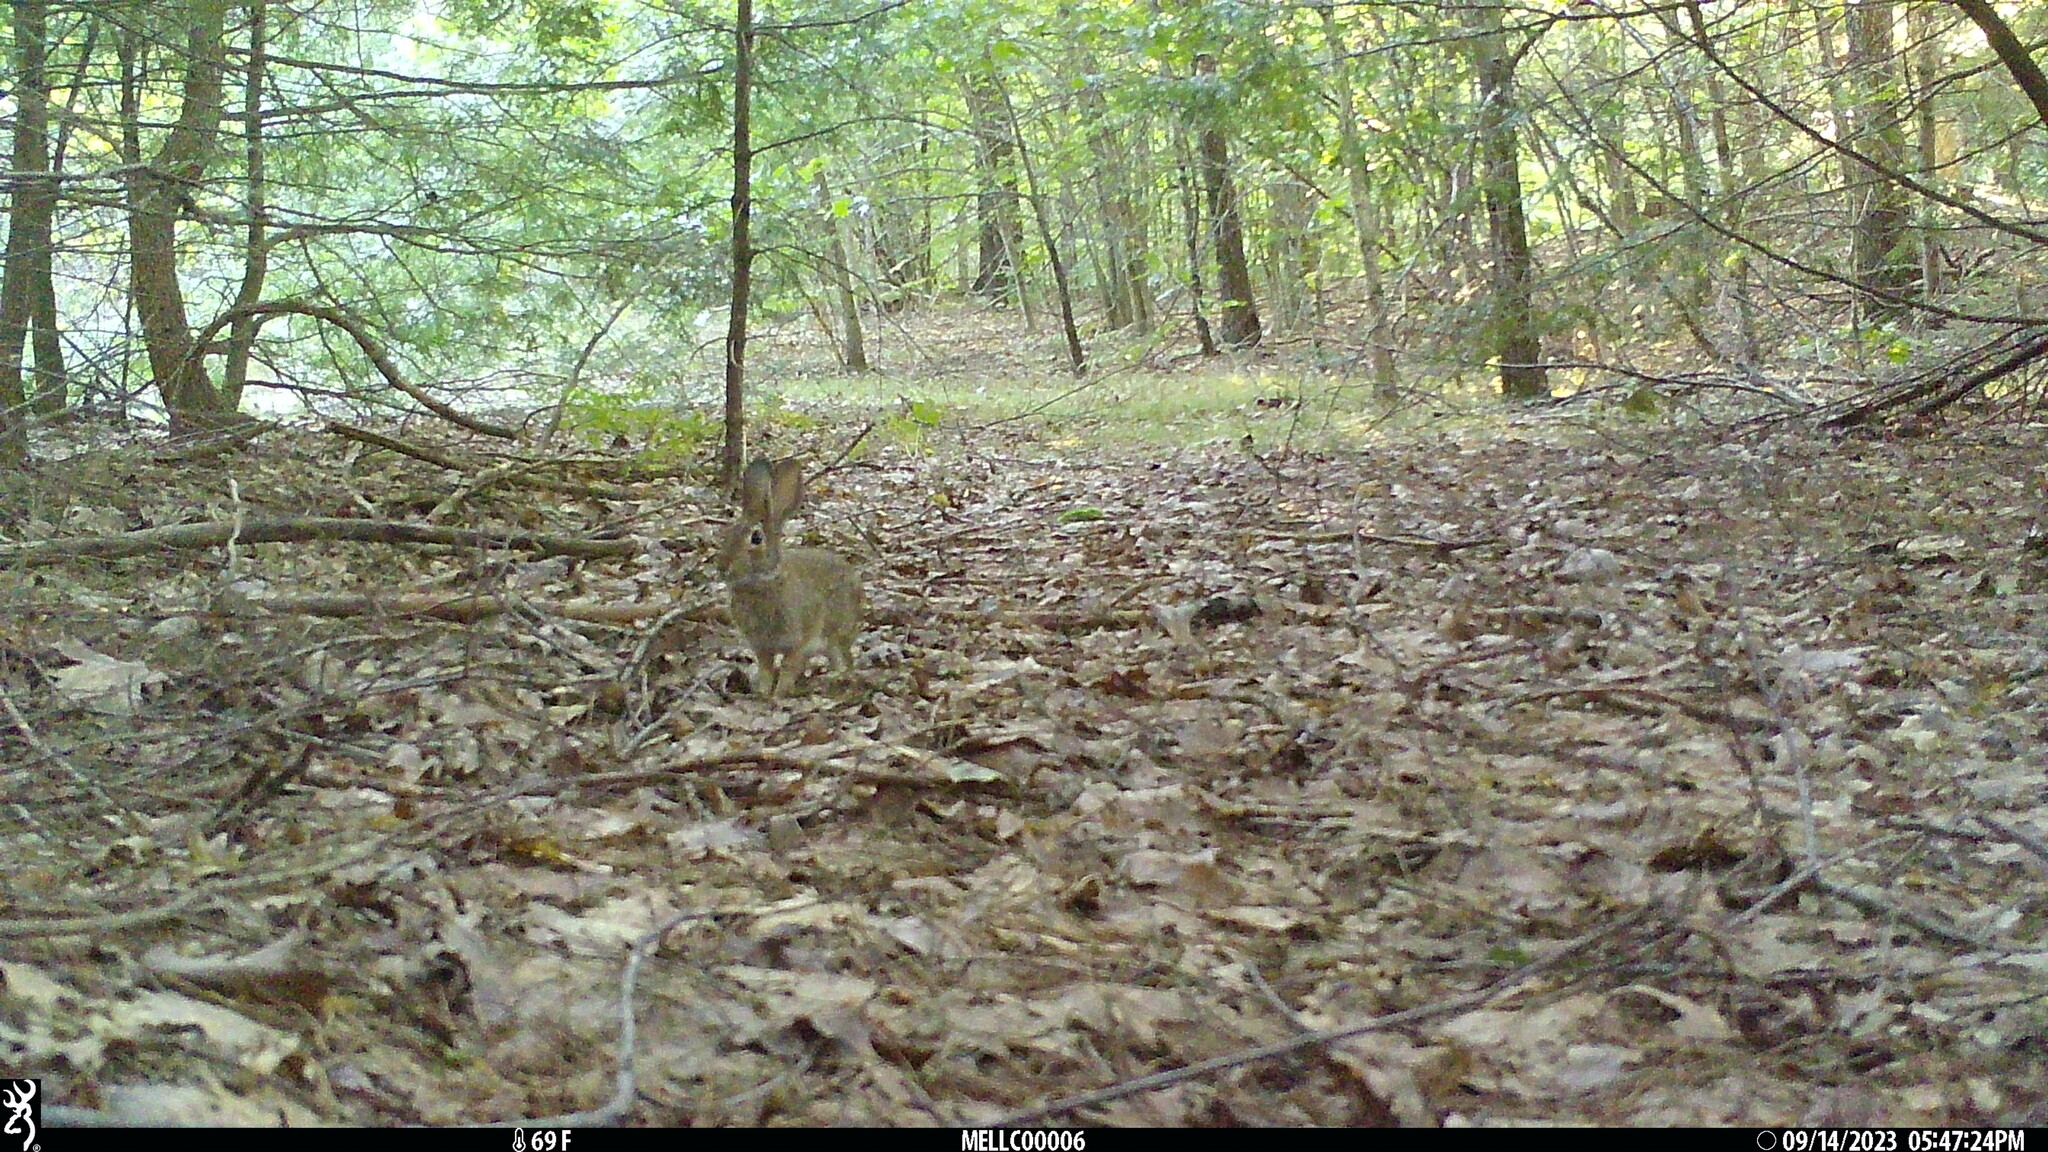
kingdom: Animalia
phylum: Chordata
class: Mammalia
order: Lagomorpha
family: Leporidae
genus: Sylvilagus
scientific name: Sylvilagus floridanus
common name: Eastern cottontail
